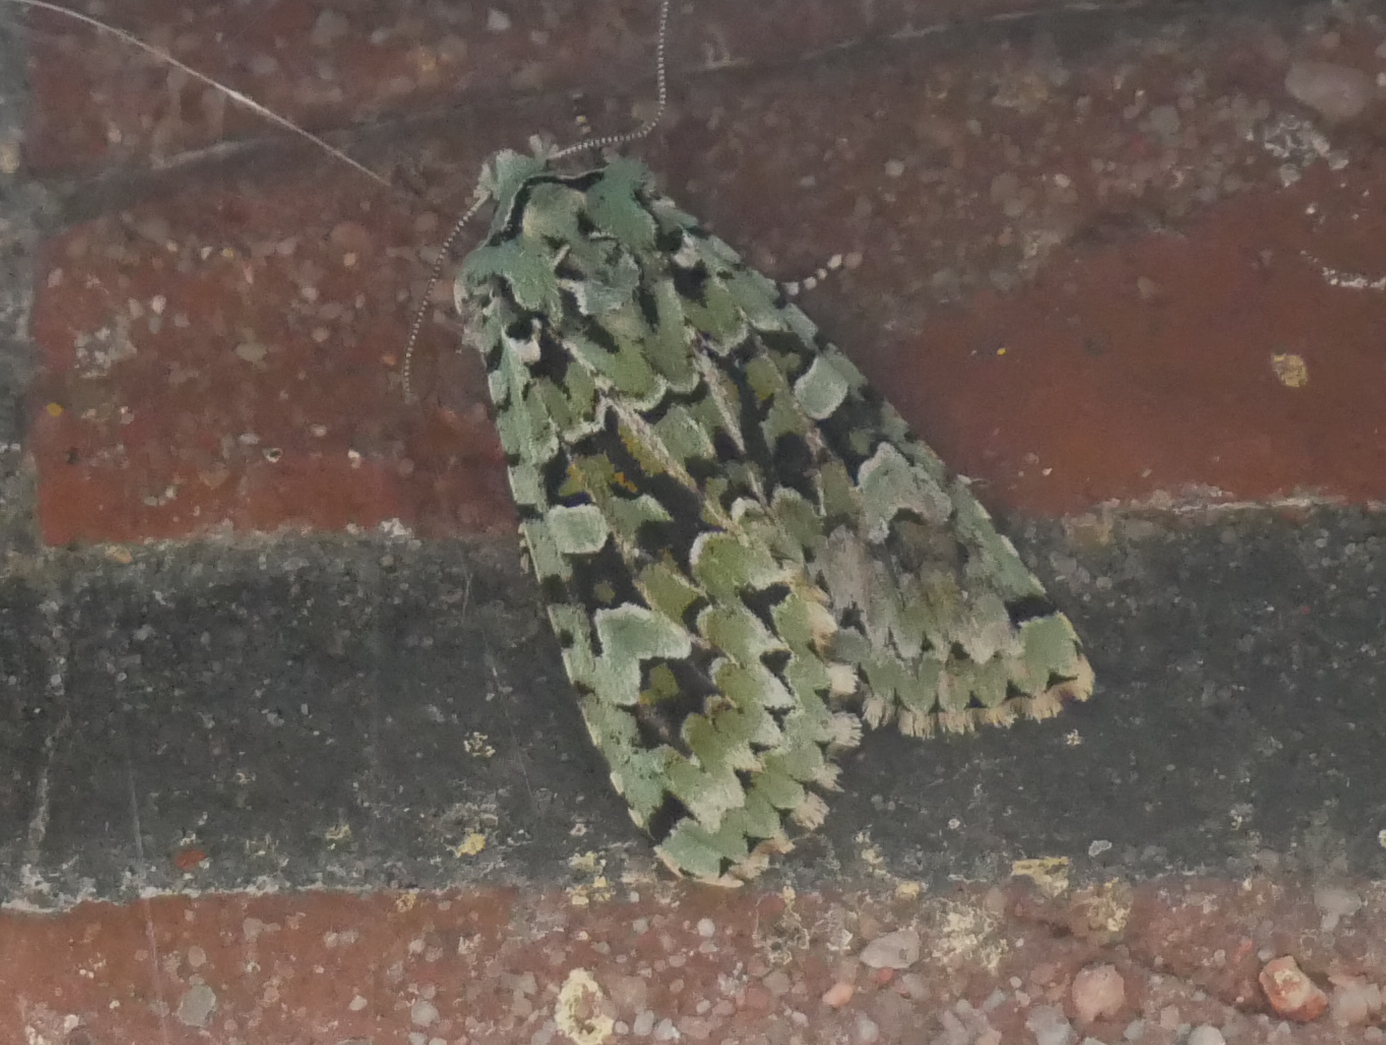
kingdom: Animalia
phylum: Arthropoda
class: Insecta
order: Lepidoptera
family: Noctuidae
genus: Griposia
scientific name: Griposia aprilina
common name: Merveille du jour
